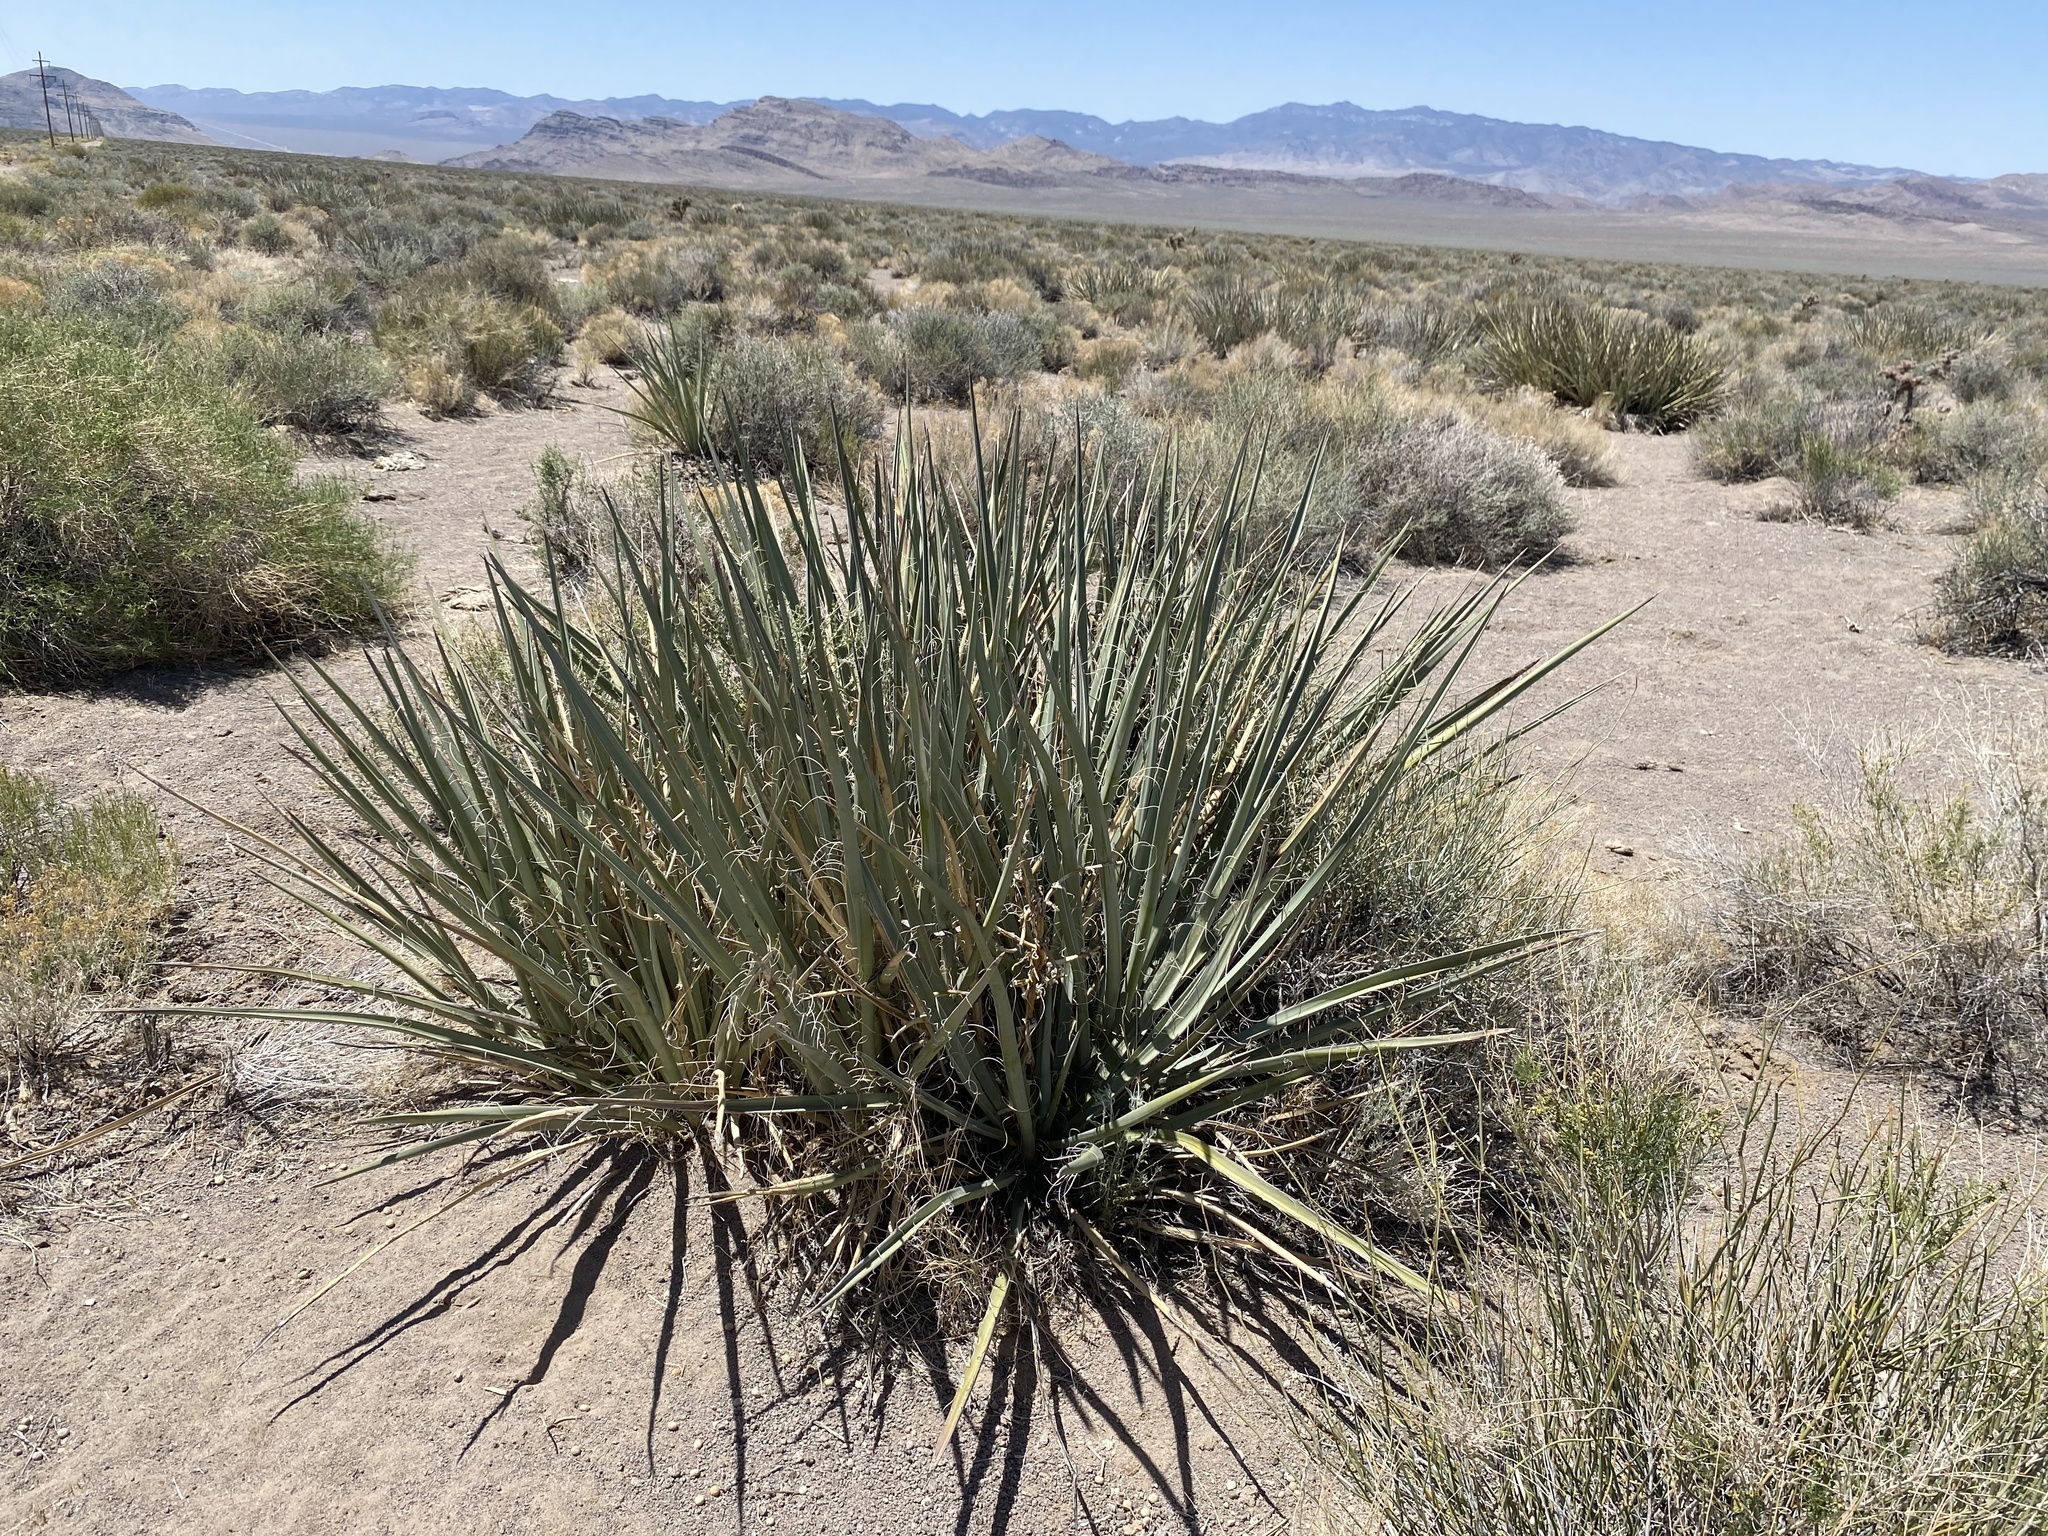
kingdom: Plantae
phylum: Tracheophyta
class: Liliopsida
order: Asparagales
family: Asparagaceae
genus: Yucca
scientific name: Yucca baccata
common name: Banana yucca
